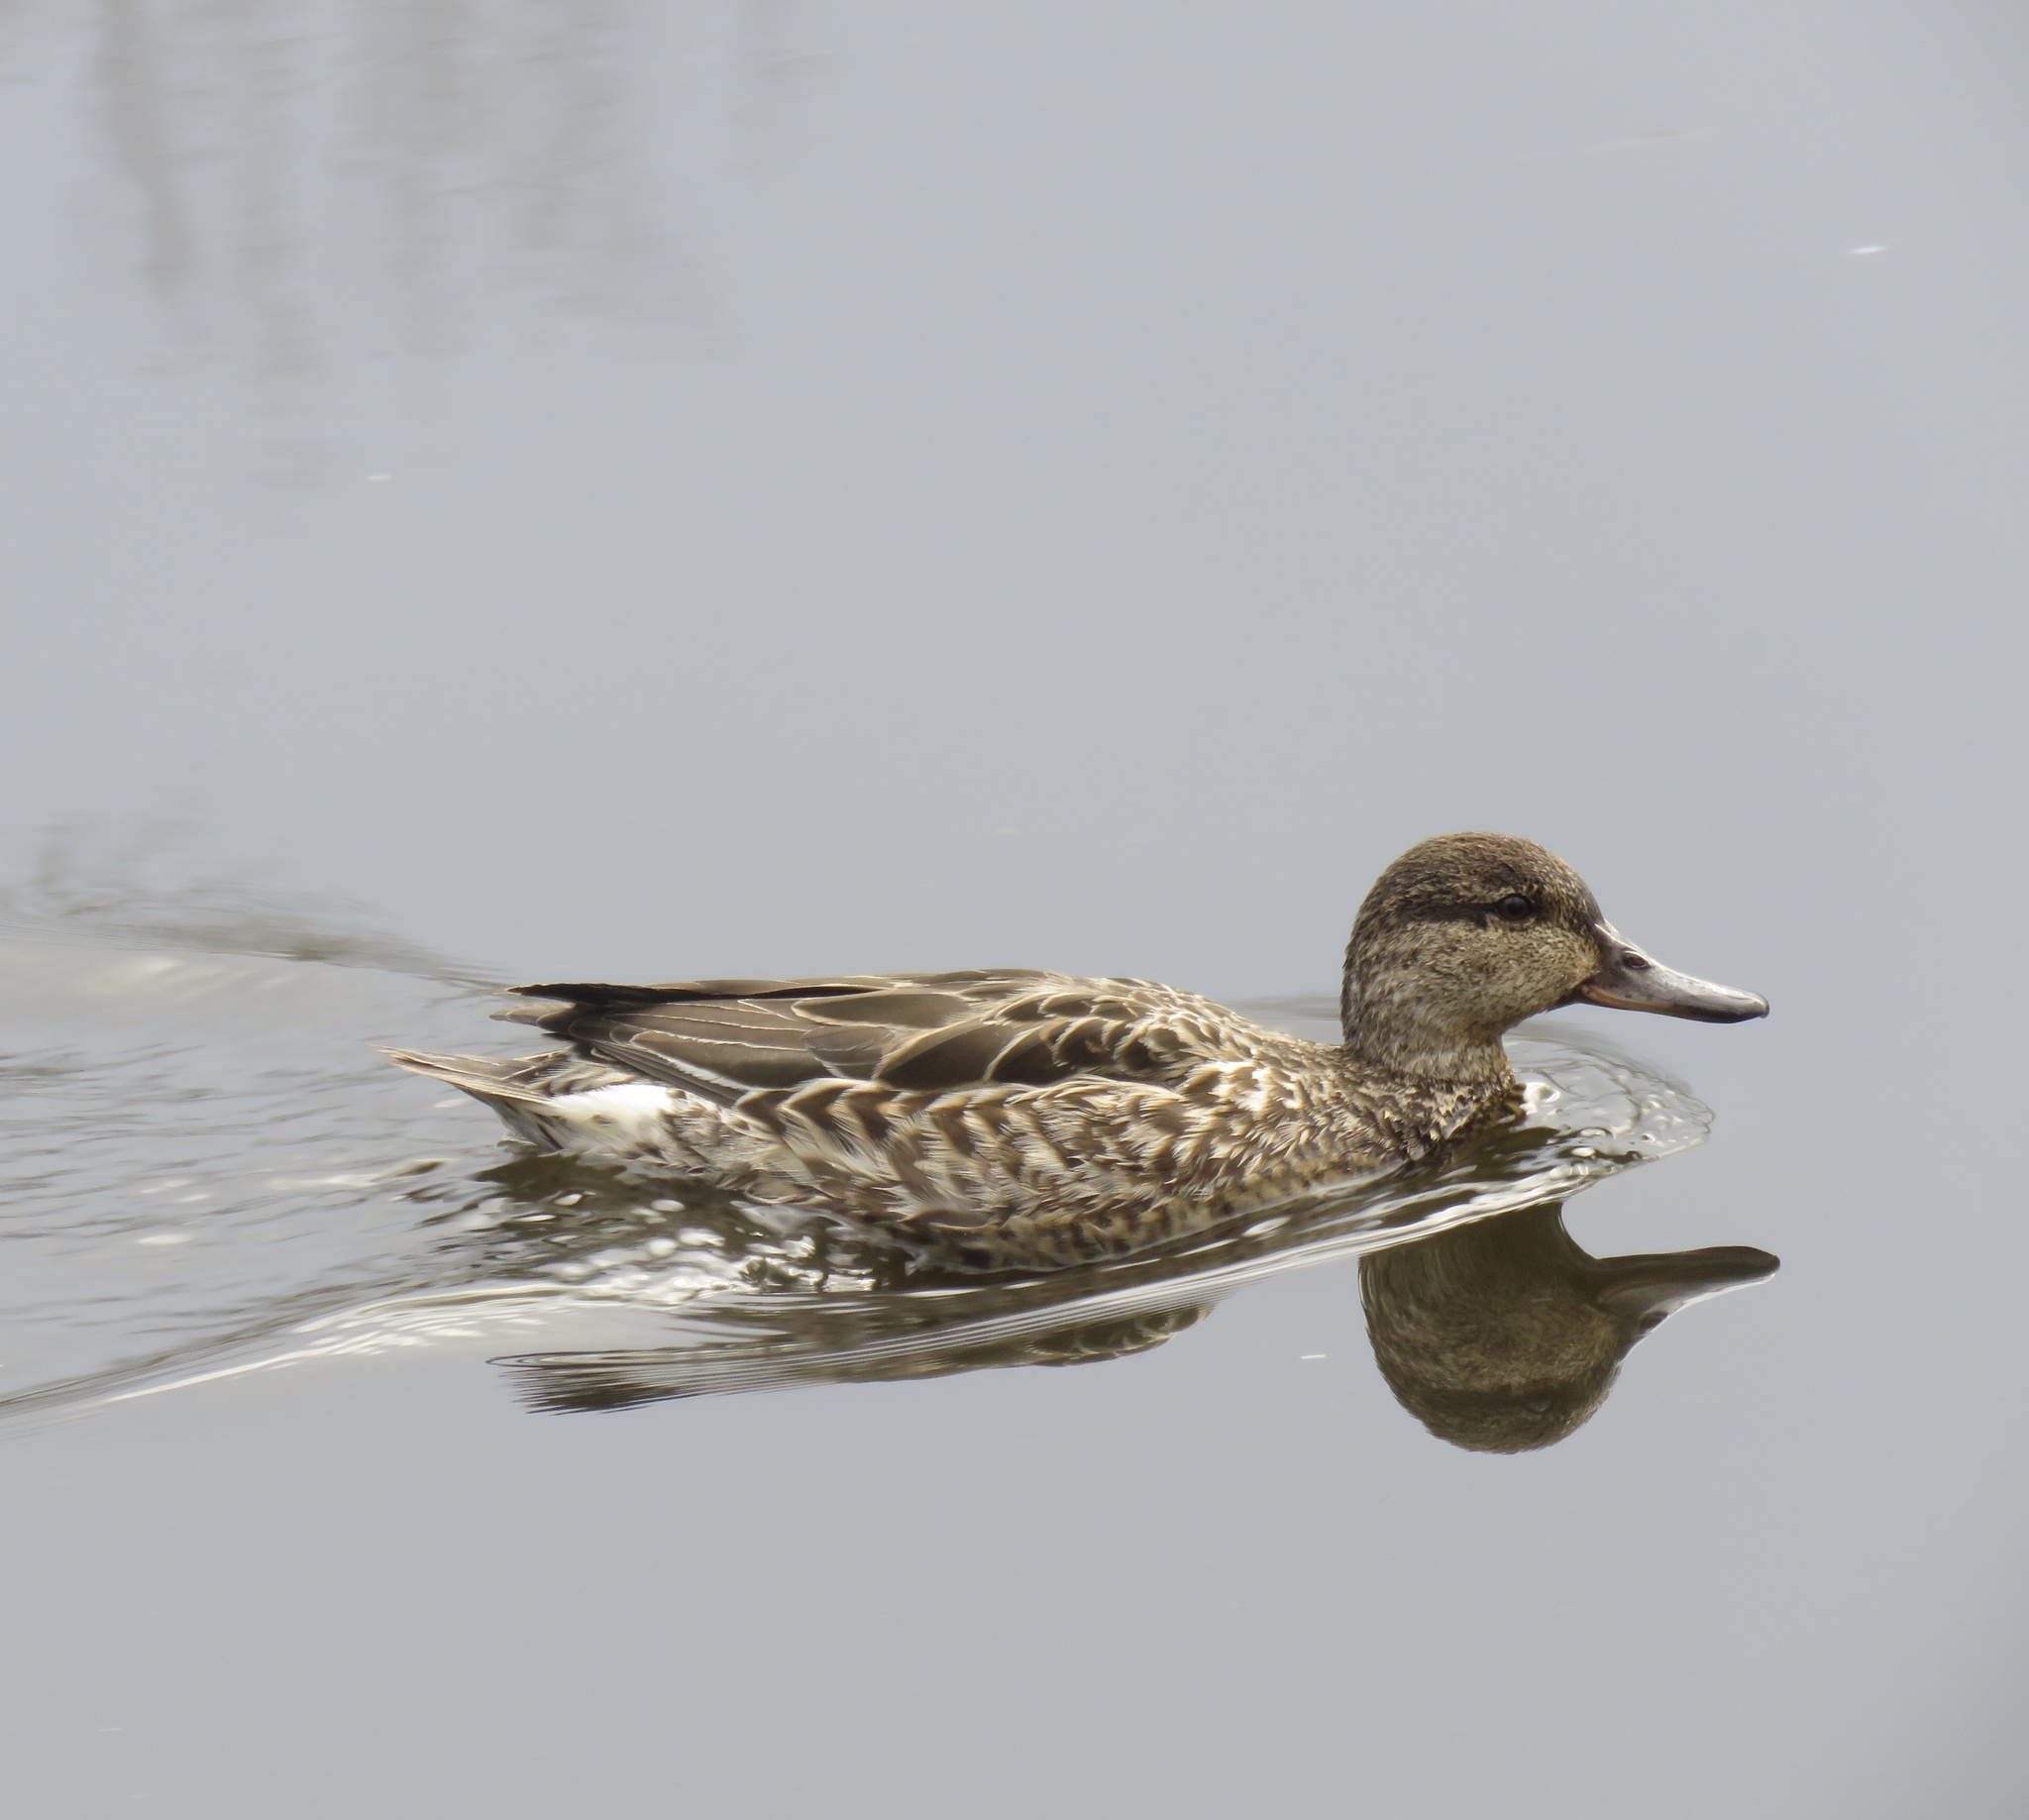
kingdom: Animalia
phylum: Chordata
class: Aves
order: Anseriformes
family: Anatidae
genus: Anas
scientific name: Anas crecca
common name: Eurasian teal
